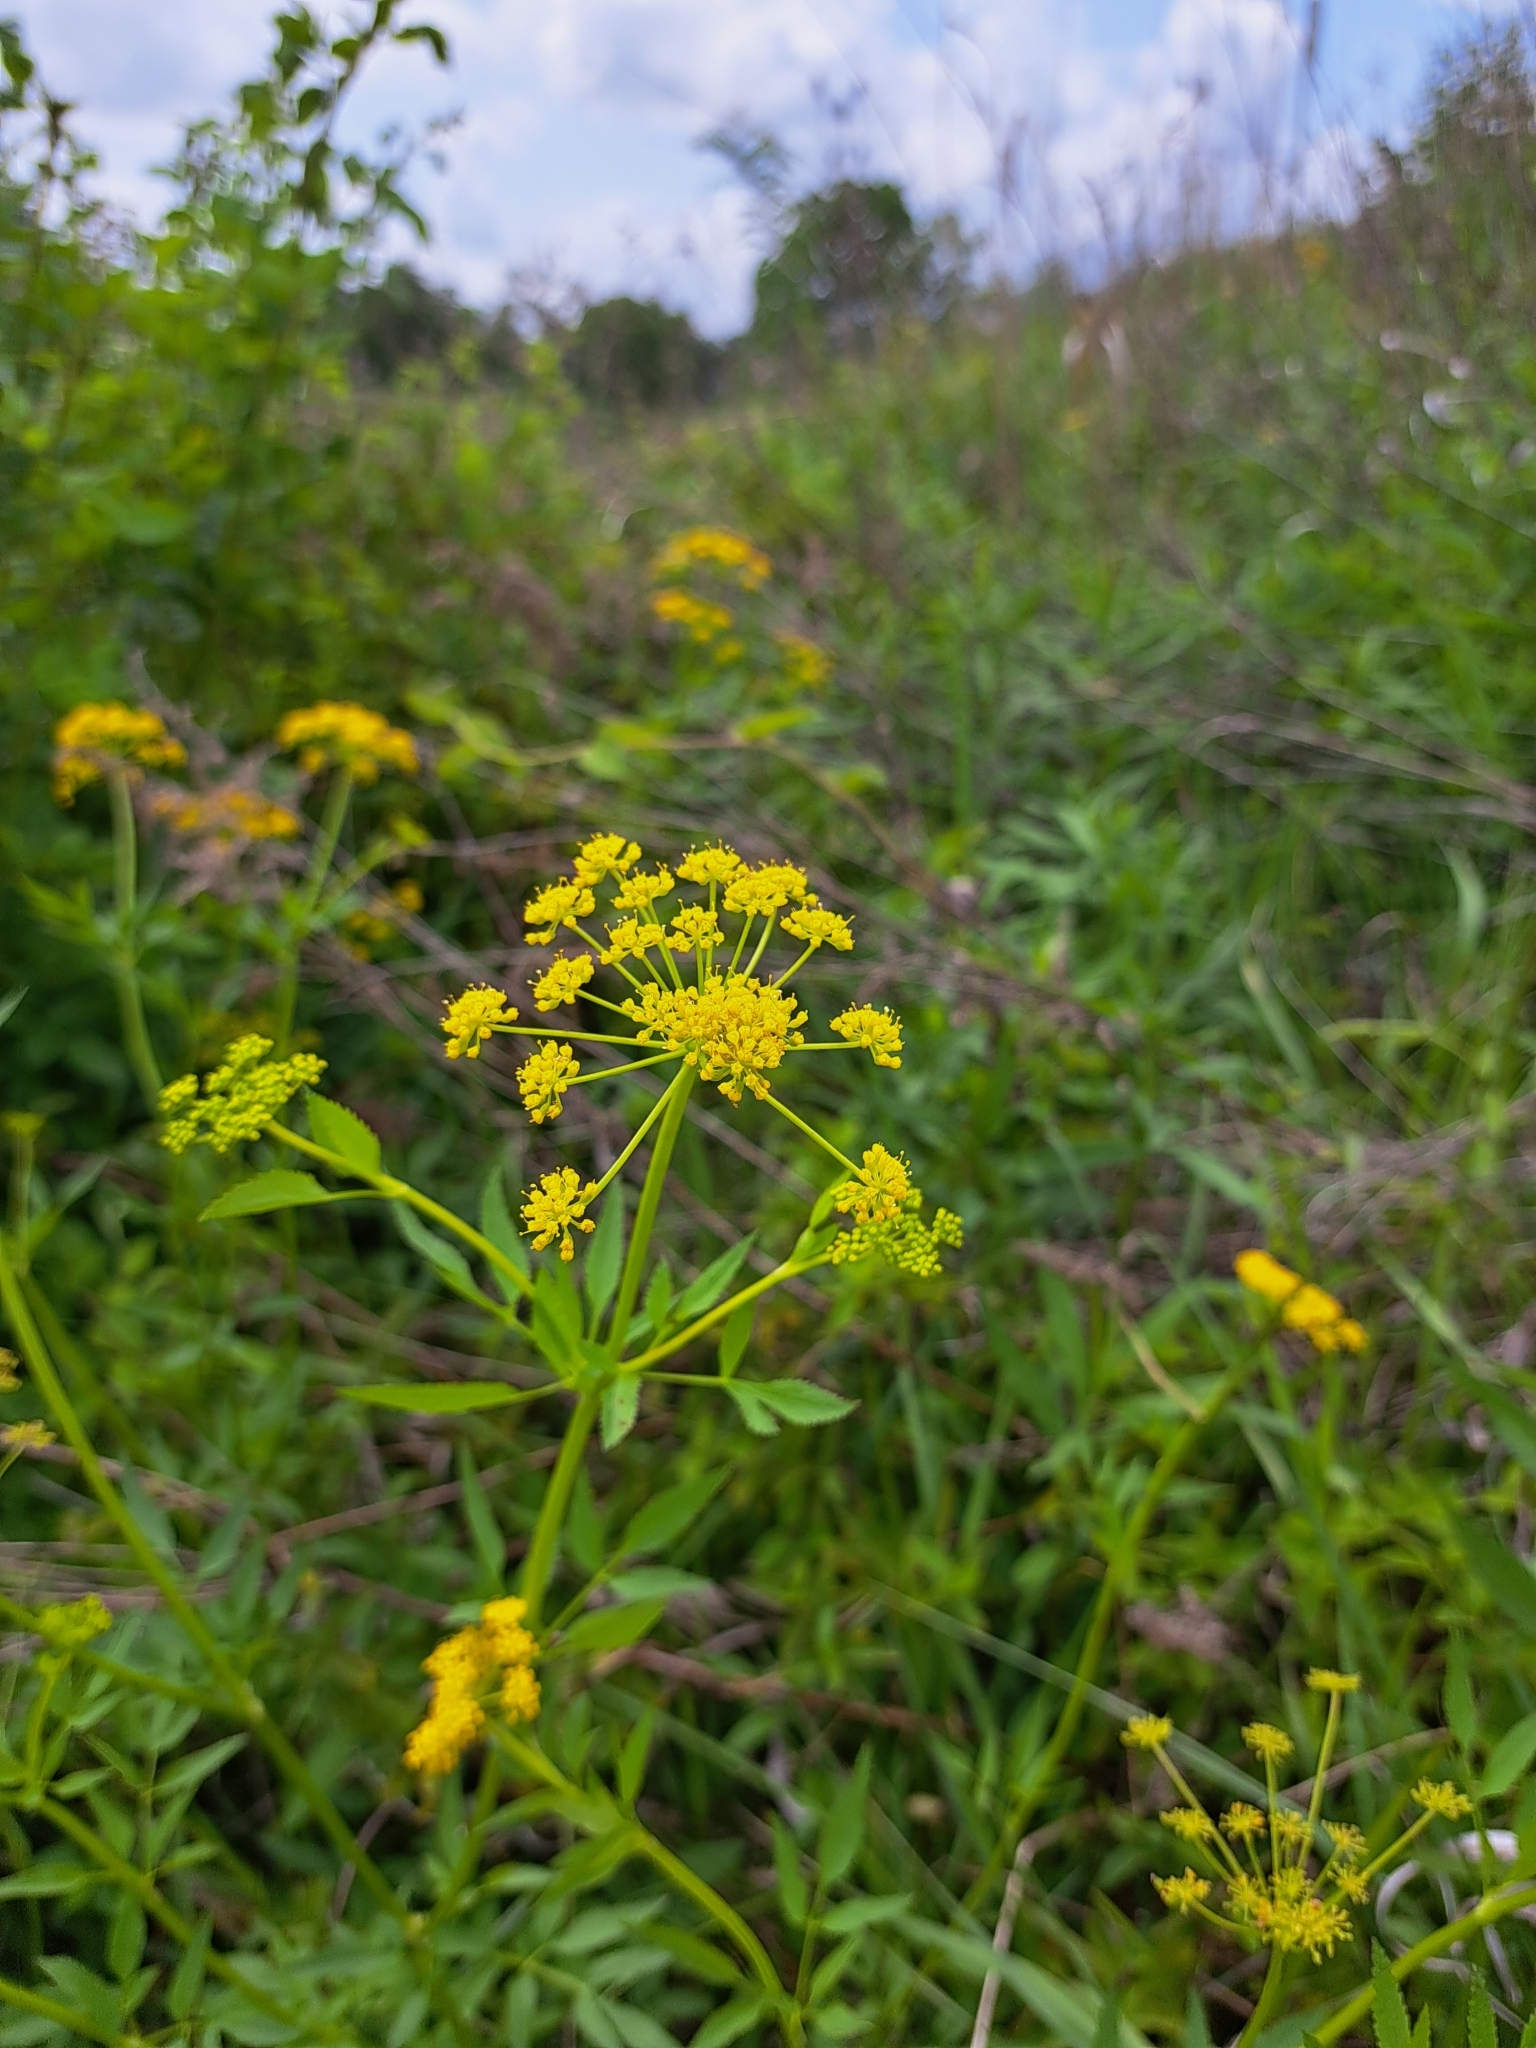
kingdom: Plantae
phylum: Tracheophyta
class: Magnoliopsida
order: Apiales
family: Apiaceae
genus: Zizia
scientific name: Zizia aurea
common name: Golden alexanders
